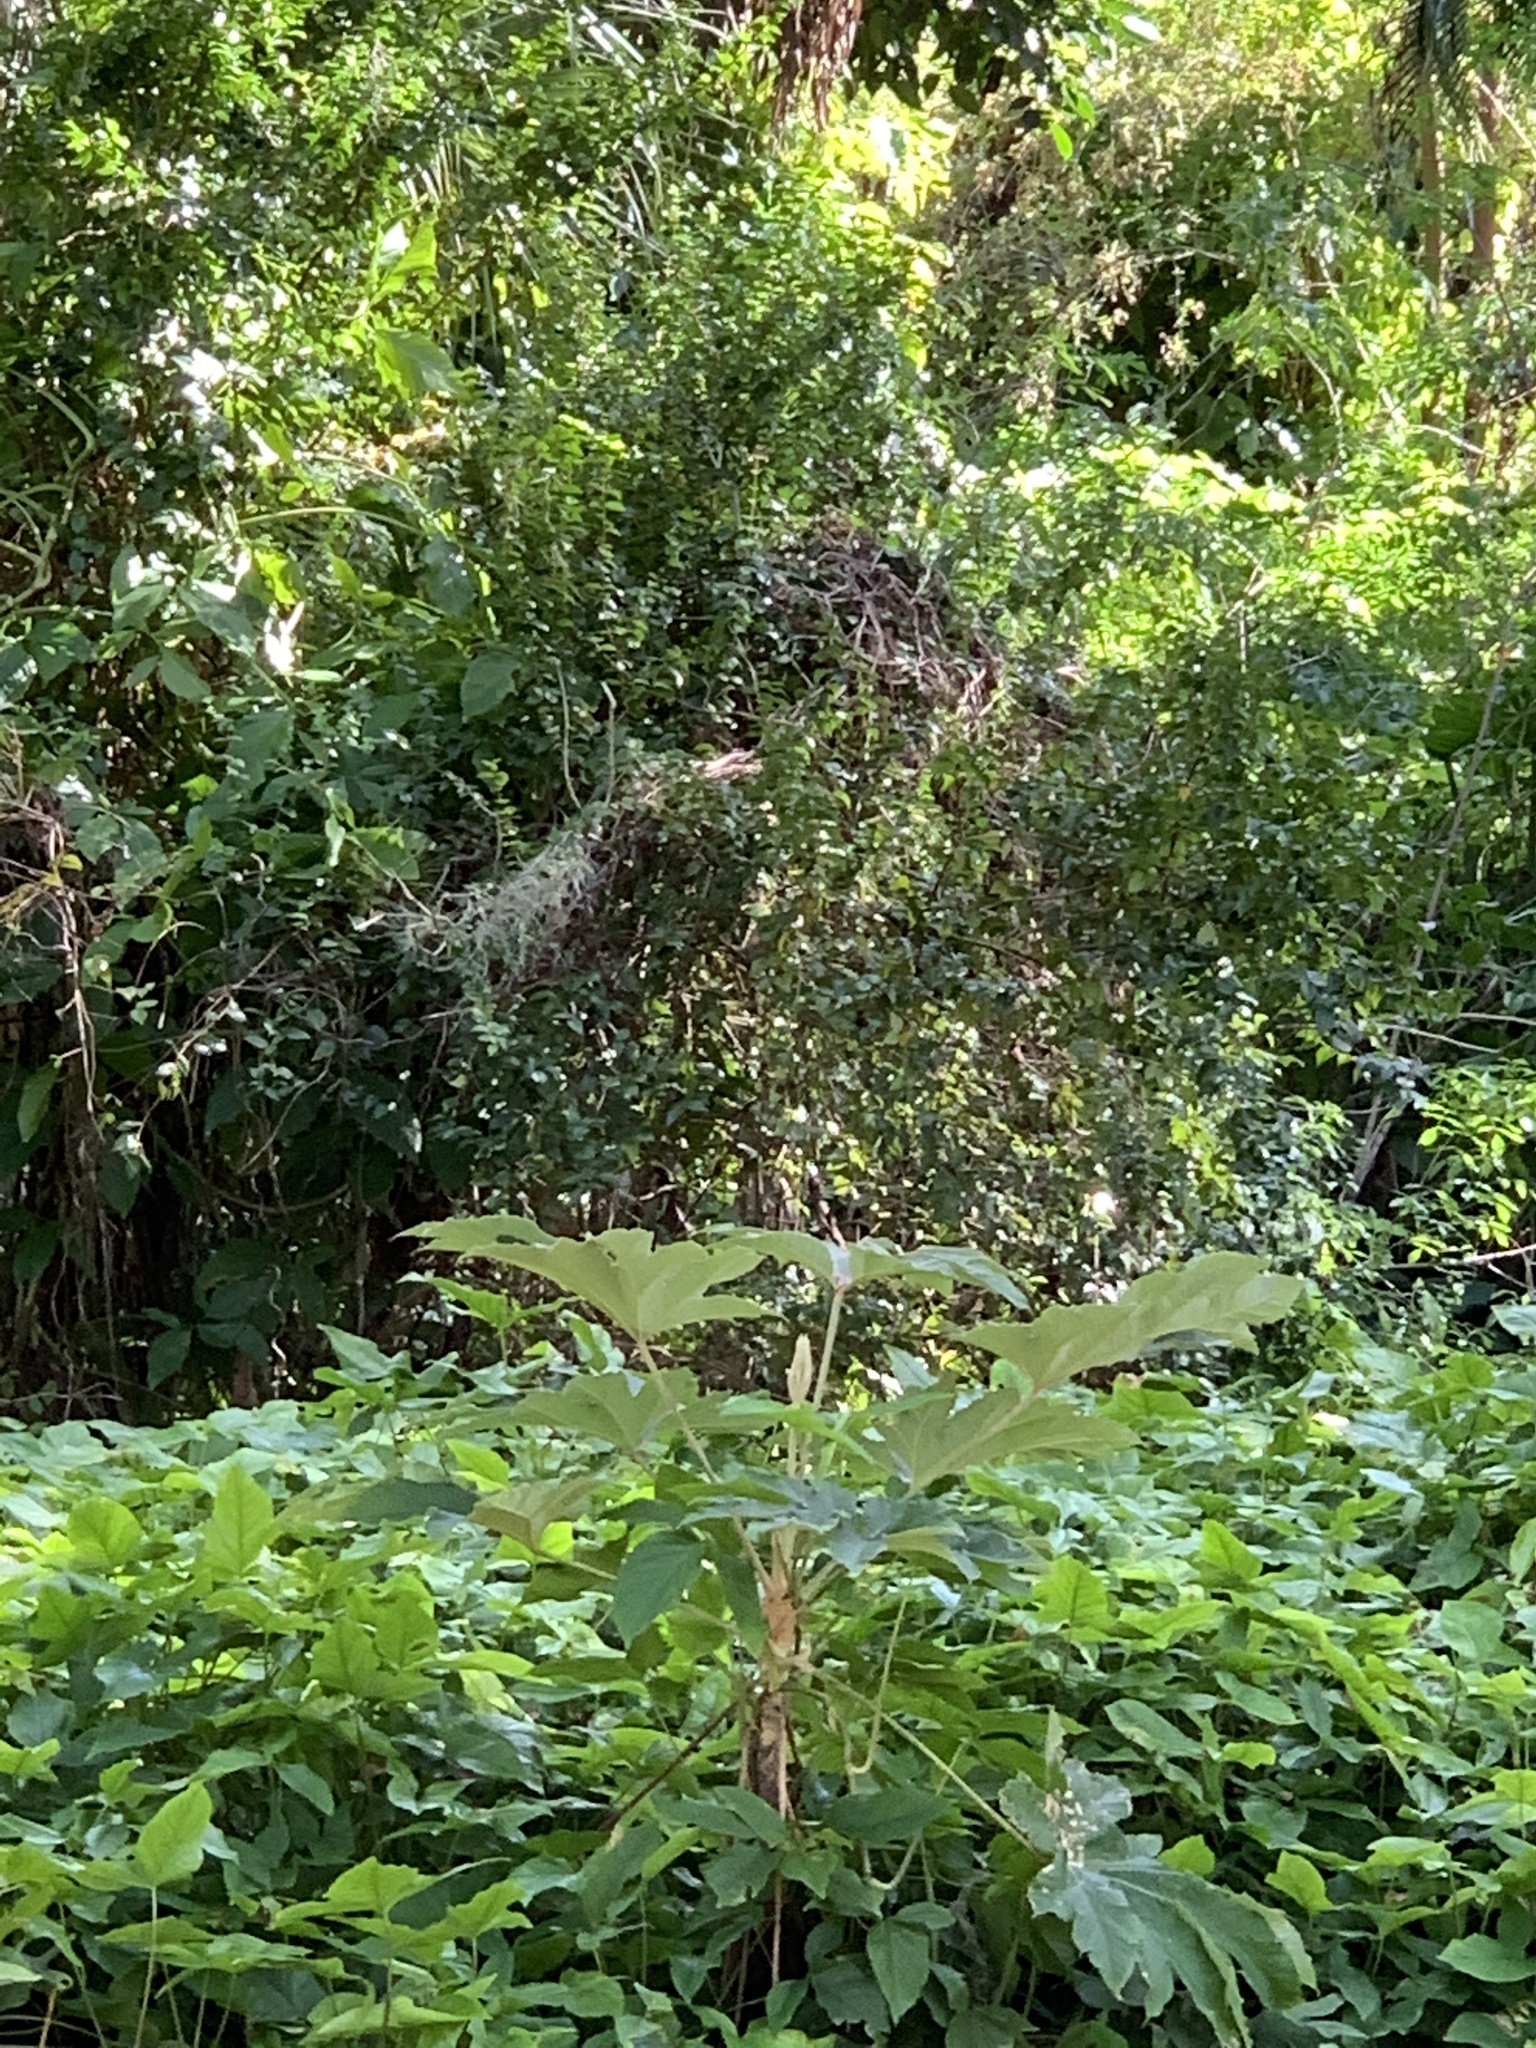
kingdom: Plantae
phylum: Tracheophyta
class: Magnoliopsida
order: Apiales
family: Araliaceae
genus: Tetrapanax
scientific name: Tetrapanax papyrifer
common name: Rice-paper plant
